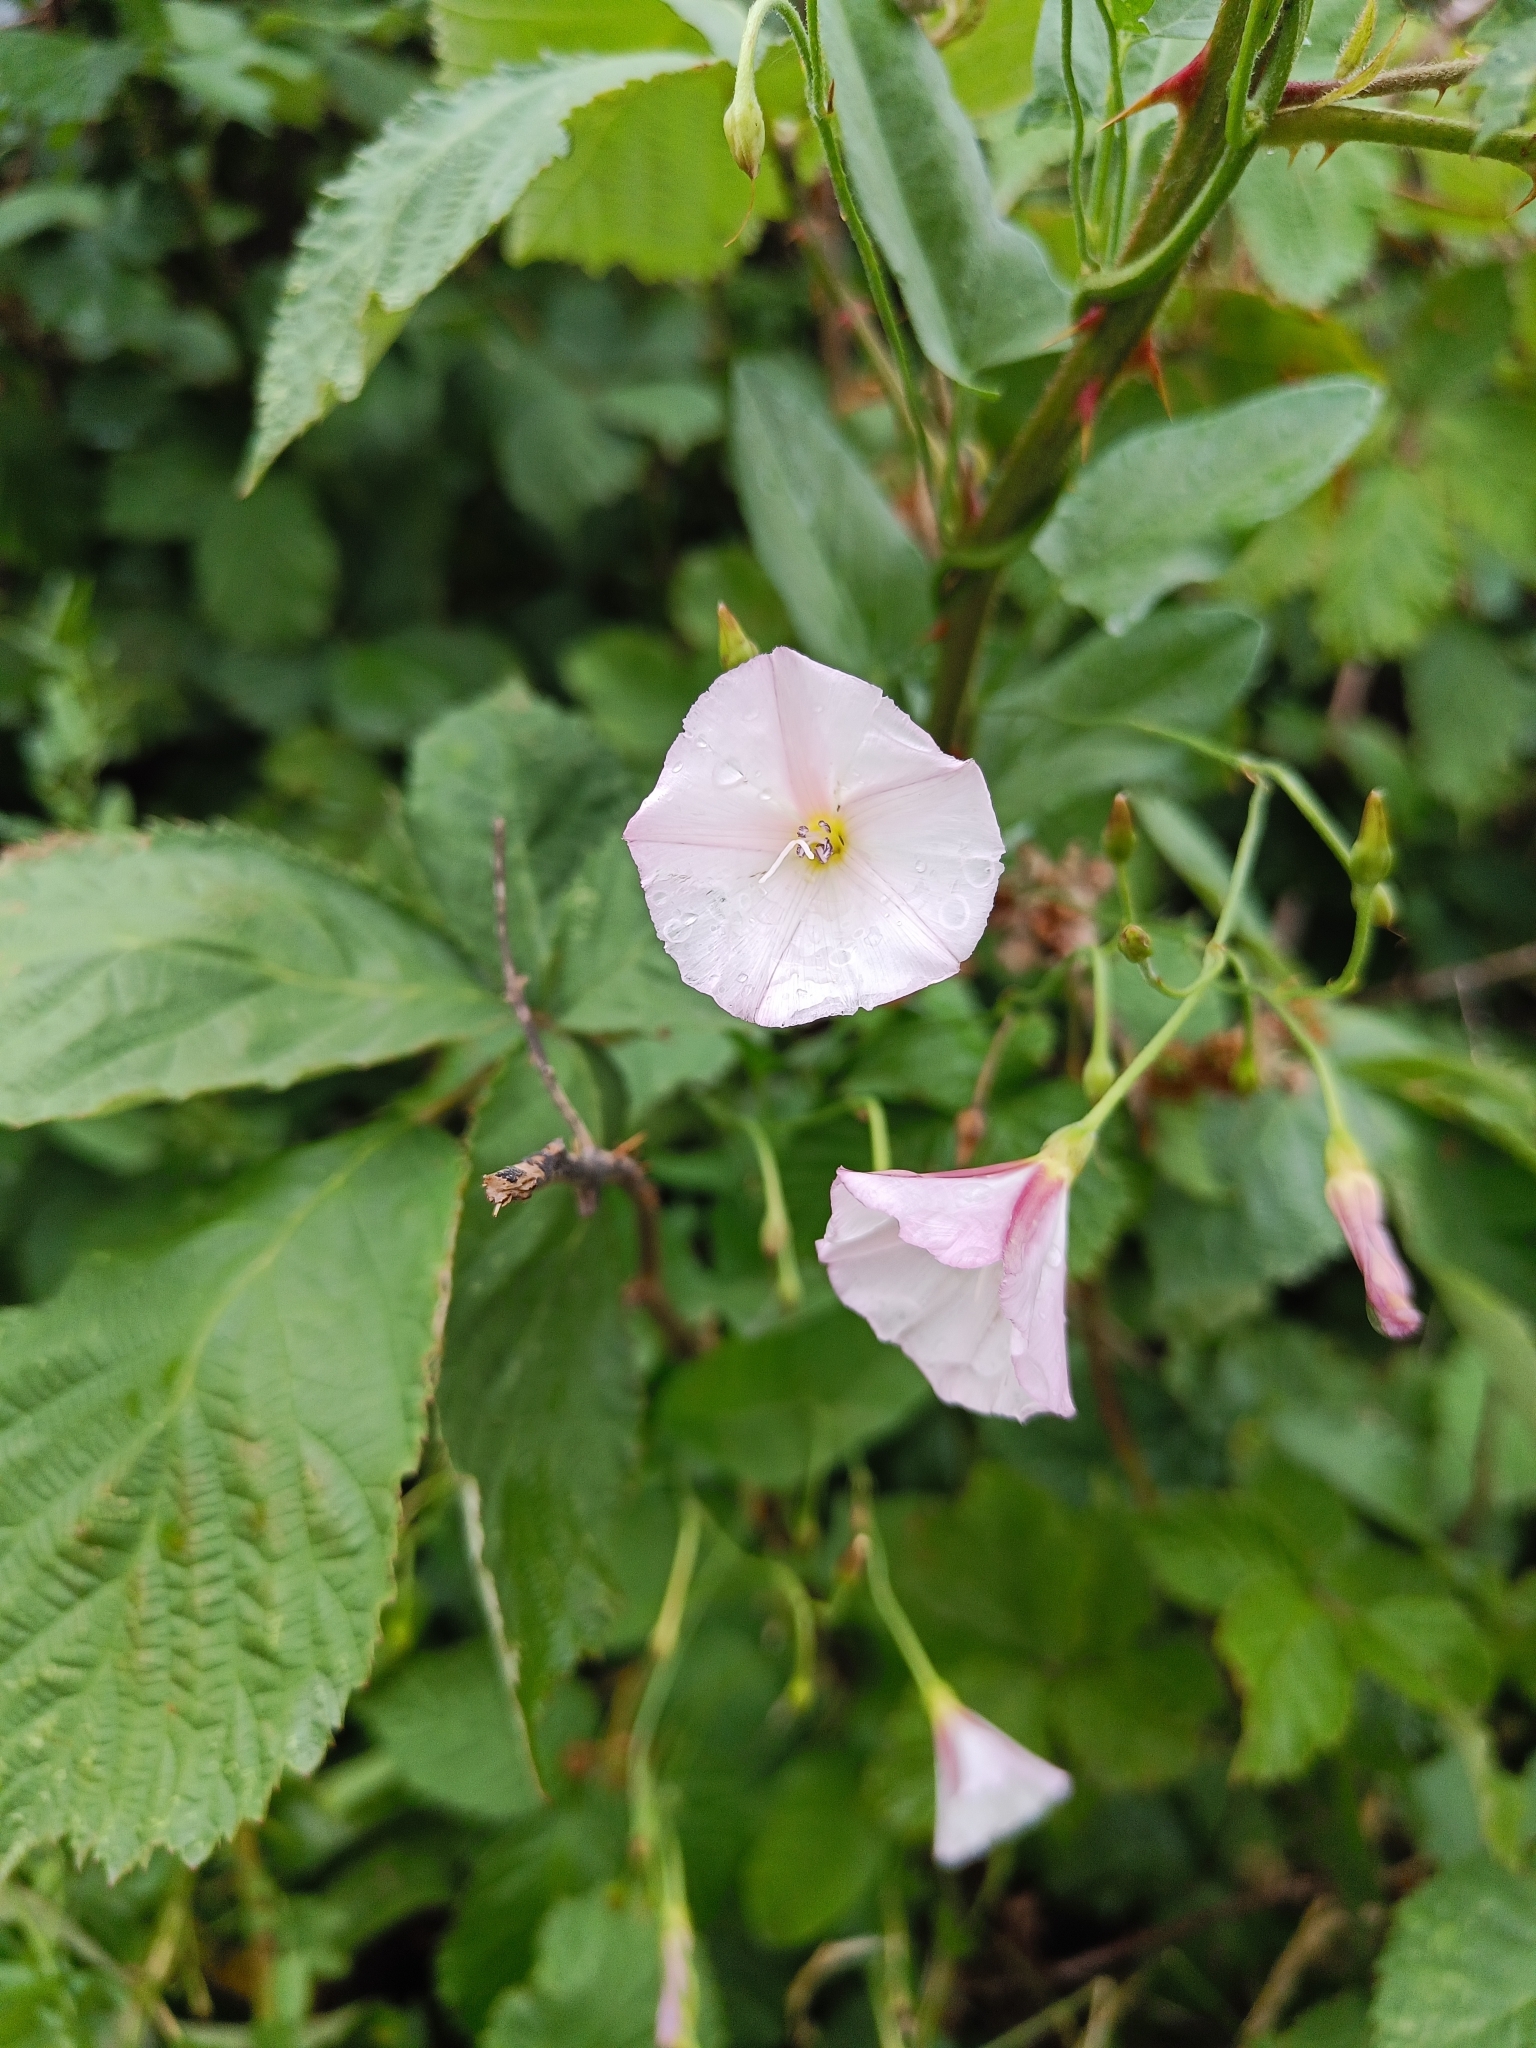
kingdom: Plantae
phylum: Tracheophyta
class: Magnoliopsida
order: Solanales
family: Convolvulaceae
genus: Convolvulus
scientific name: Convolvulus arvensis
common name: Field bindweed
